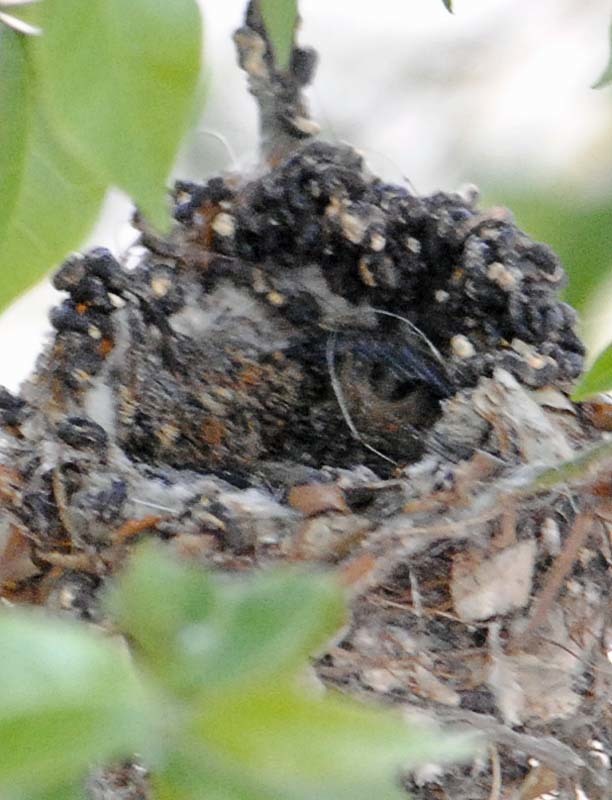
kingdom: Animalia
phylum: Chordata
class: Aves
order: Apodiformes
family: Trochilidae
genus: Cynanthus
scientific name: Cynanthus latirostris
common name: Broad-billed hummingbird
